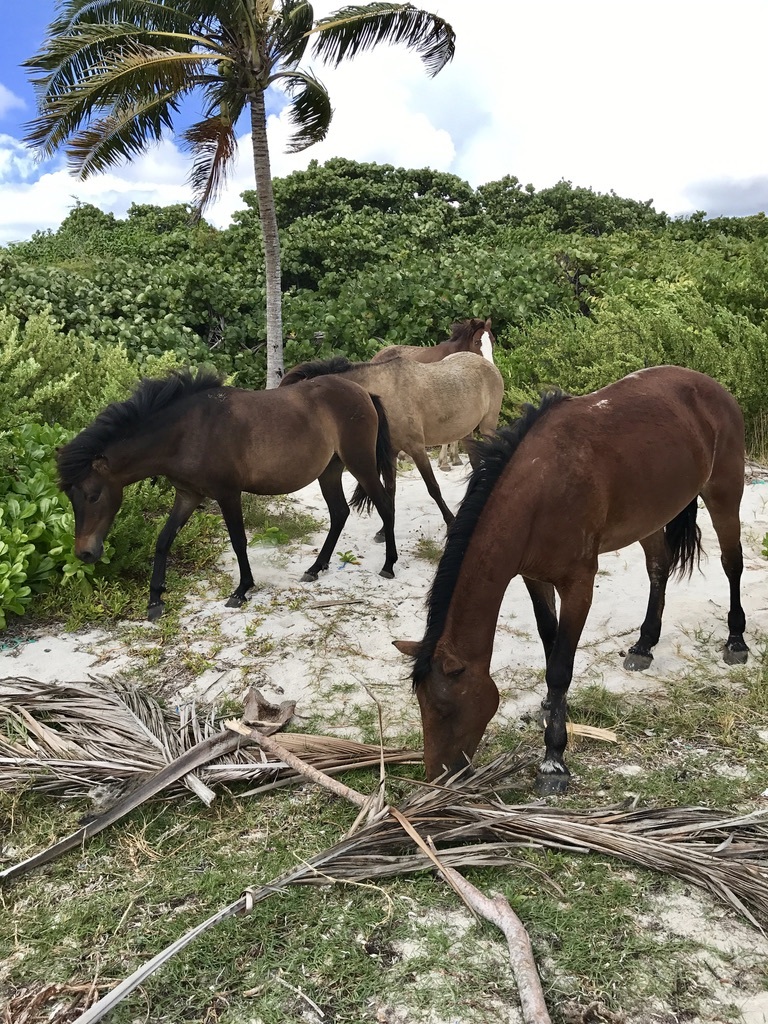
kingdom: Animalia
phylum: Chordata
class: Mammalia
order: Perissodactyla
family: Equidae
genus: Equus
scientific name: Equus caballus
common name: Horse
